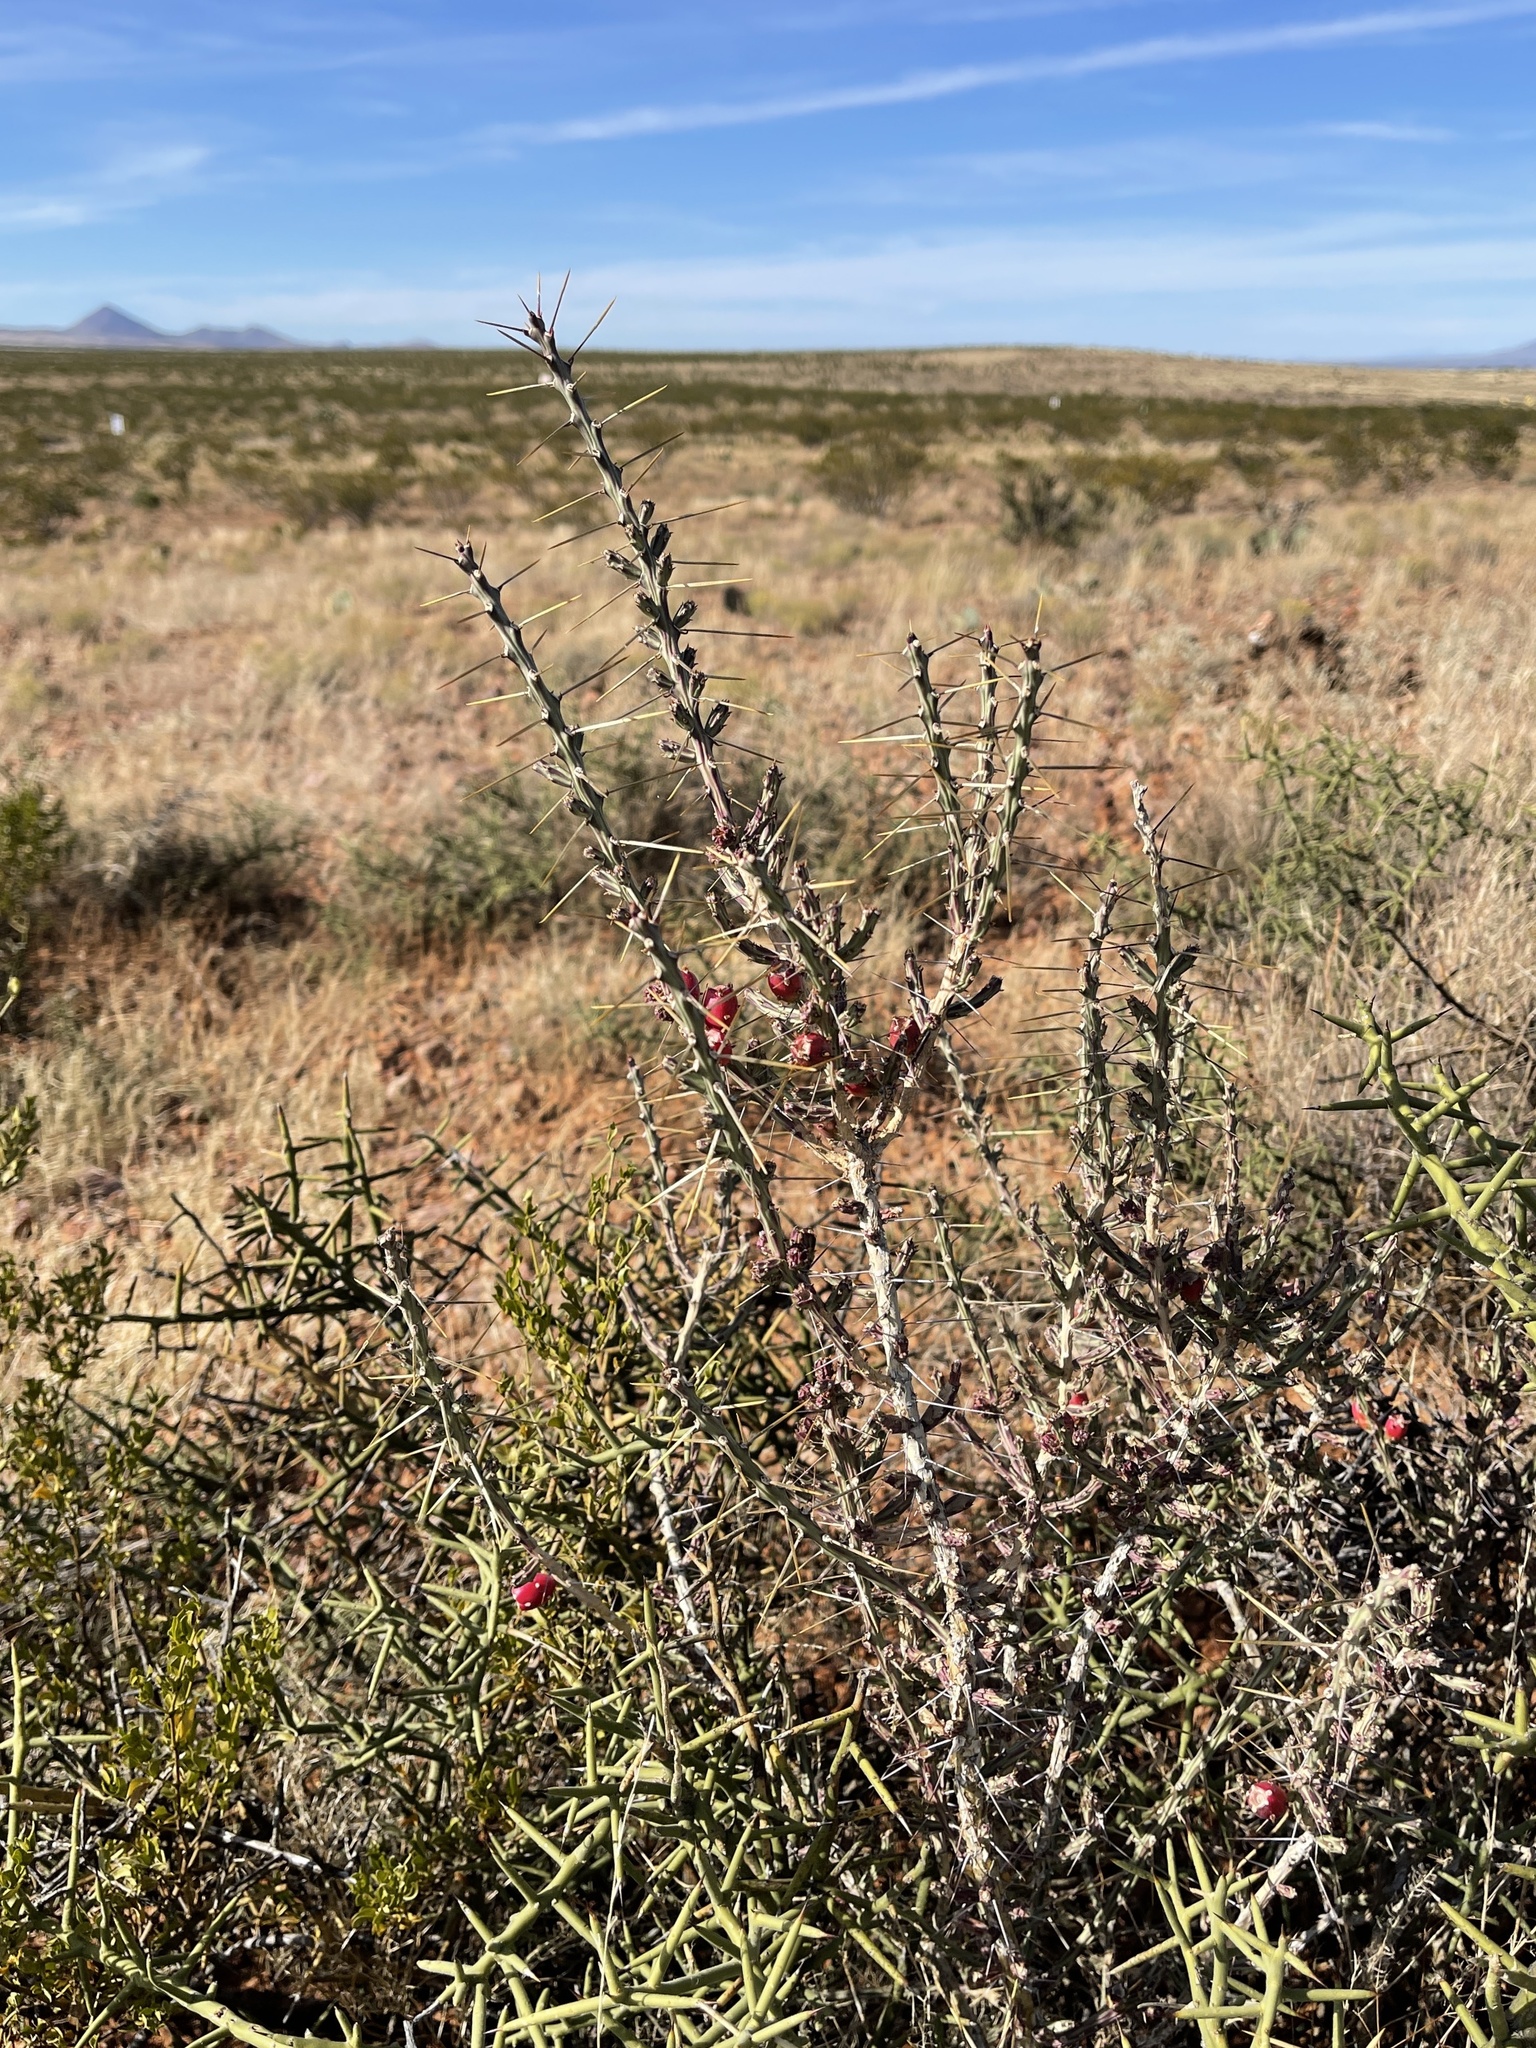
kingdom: Plantae
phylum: Tracheophyta
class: Magnoliopsida
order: Caryophyllales
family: Cactaceae
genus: Cylindropuntia
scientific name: Cylindropuntia leptocaulis
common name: Christmas cactus
